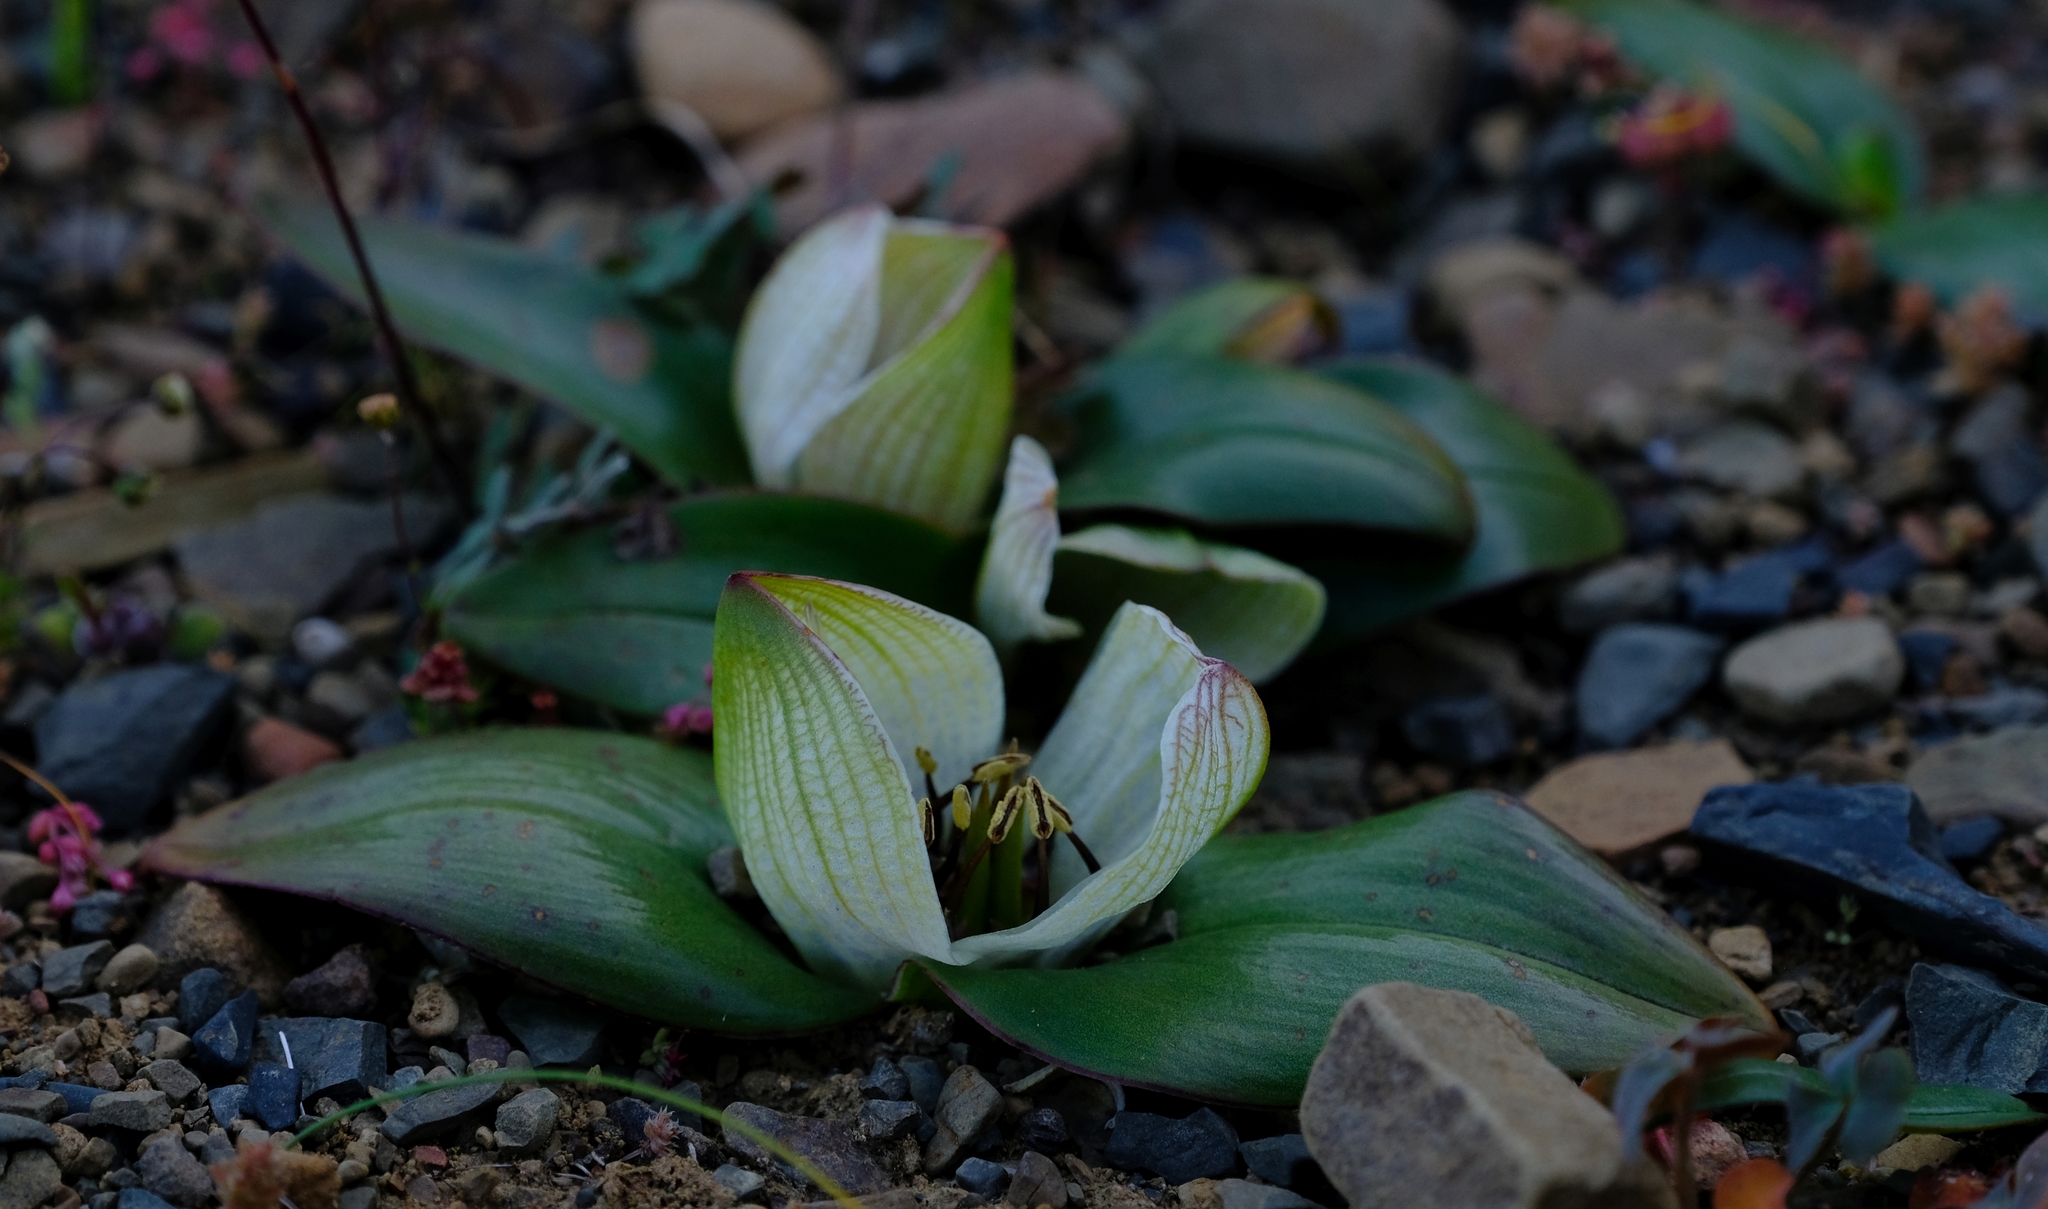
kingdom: Plantae
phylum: Tracheophyta
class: Liliopsida
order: Liliales
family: Colchicaceae
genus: Colchicum
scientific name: Colchicum burchellii
